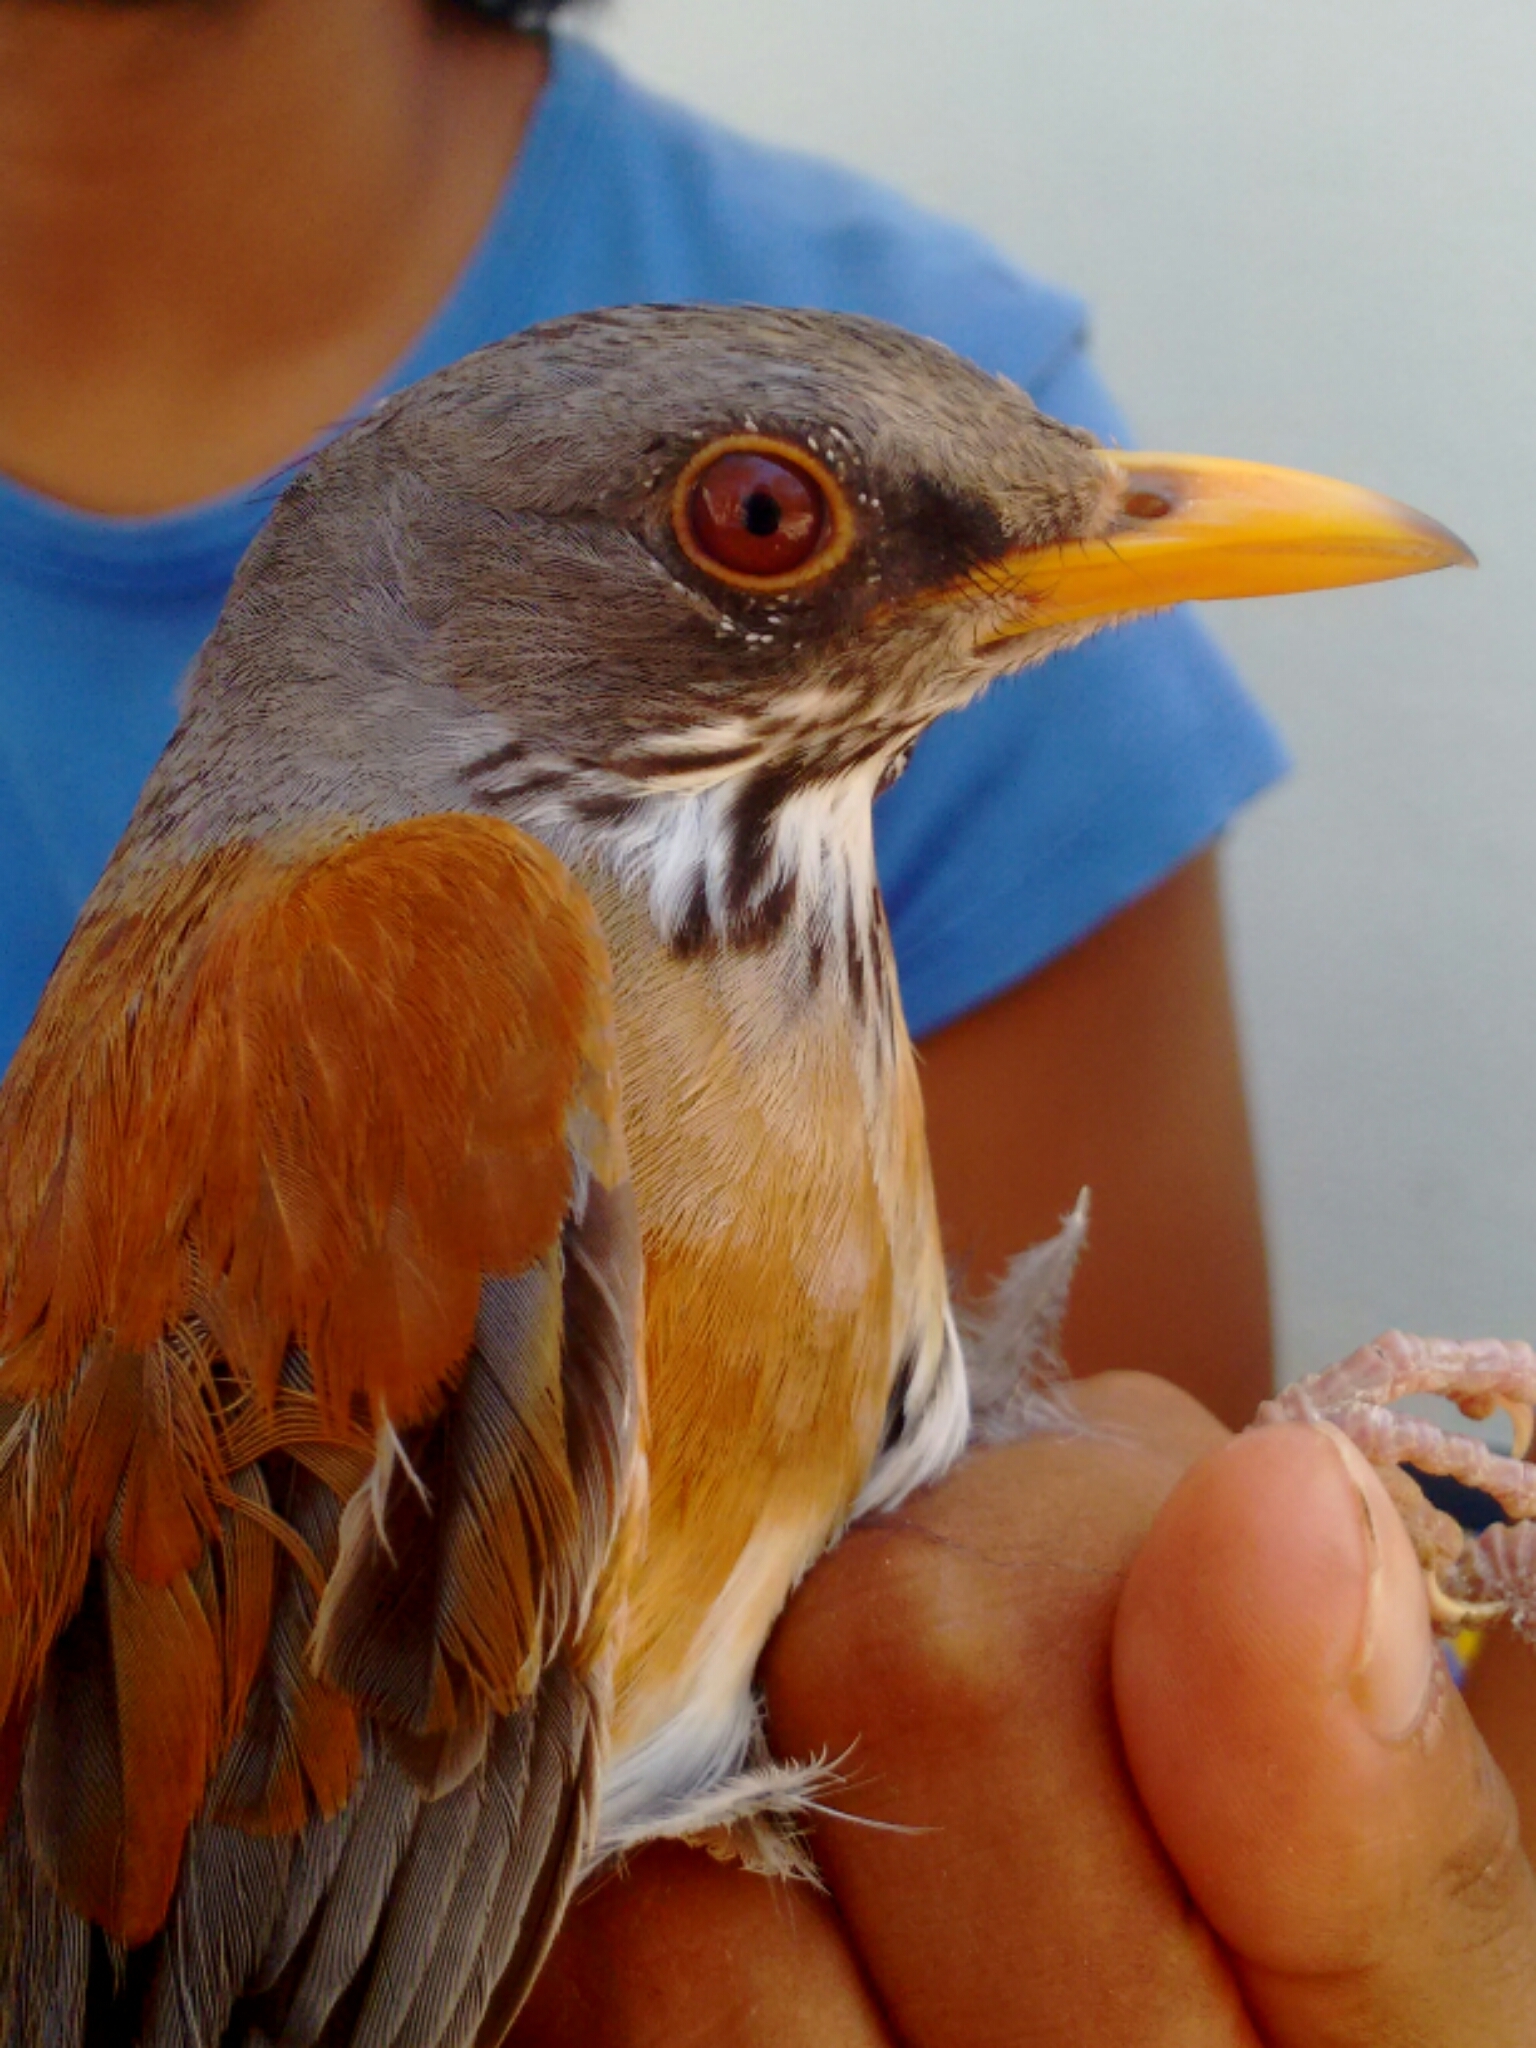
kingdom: Animalia
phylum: Chordata
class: Aves
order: Passeriformes
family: Turdidae
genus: Turdus
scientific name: Turdus rufopalliatus
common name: Rufous-backed robin
